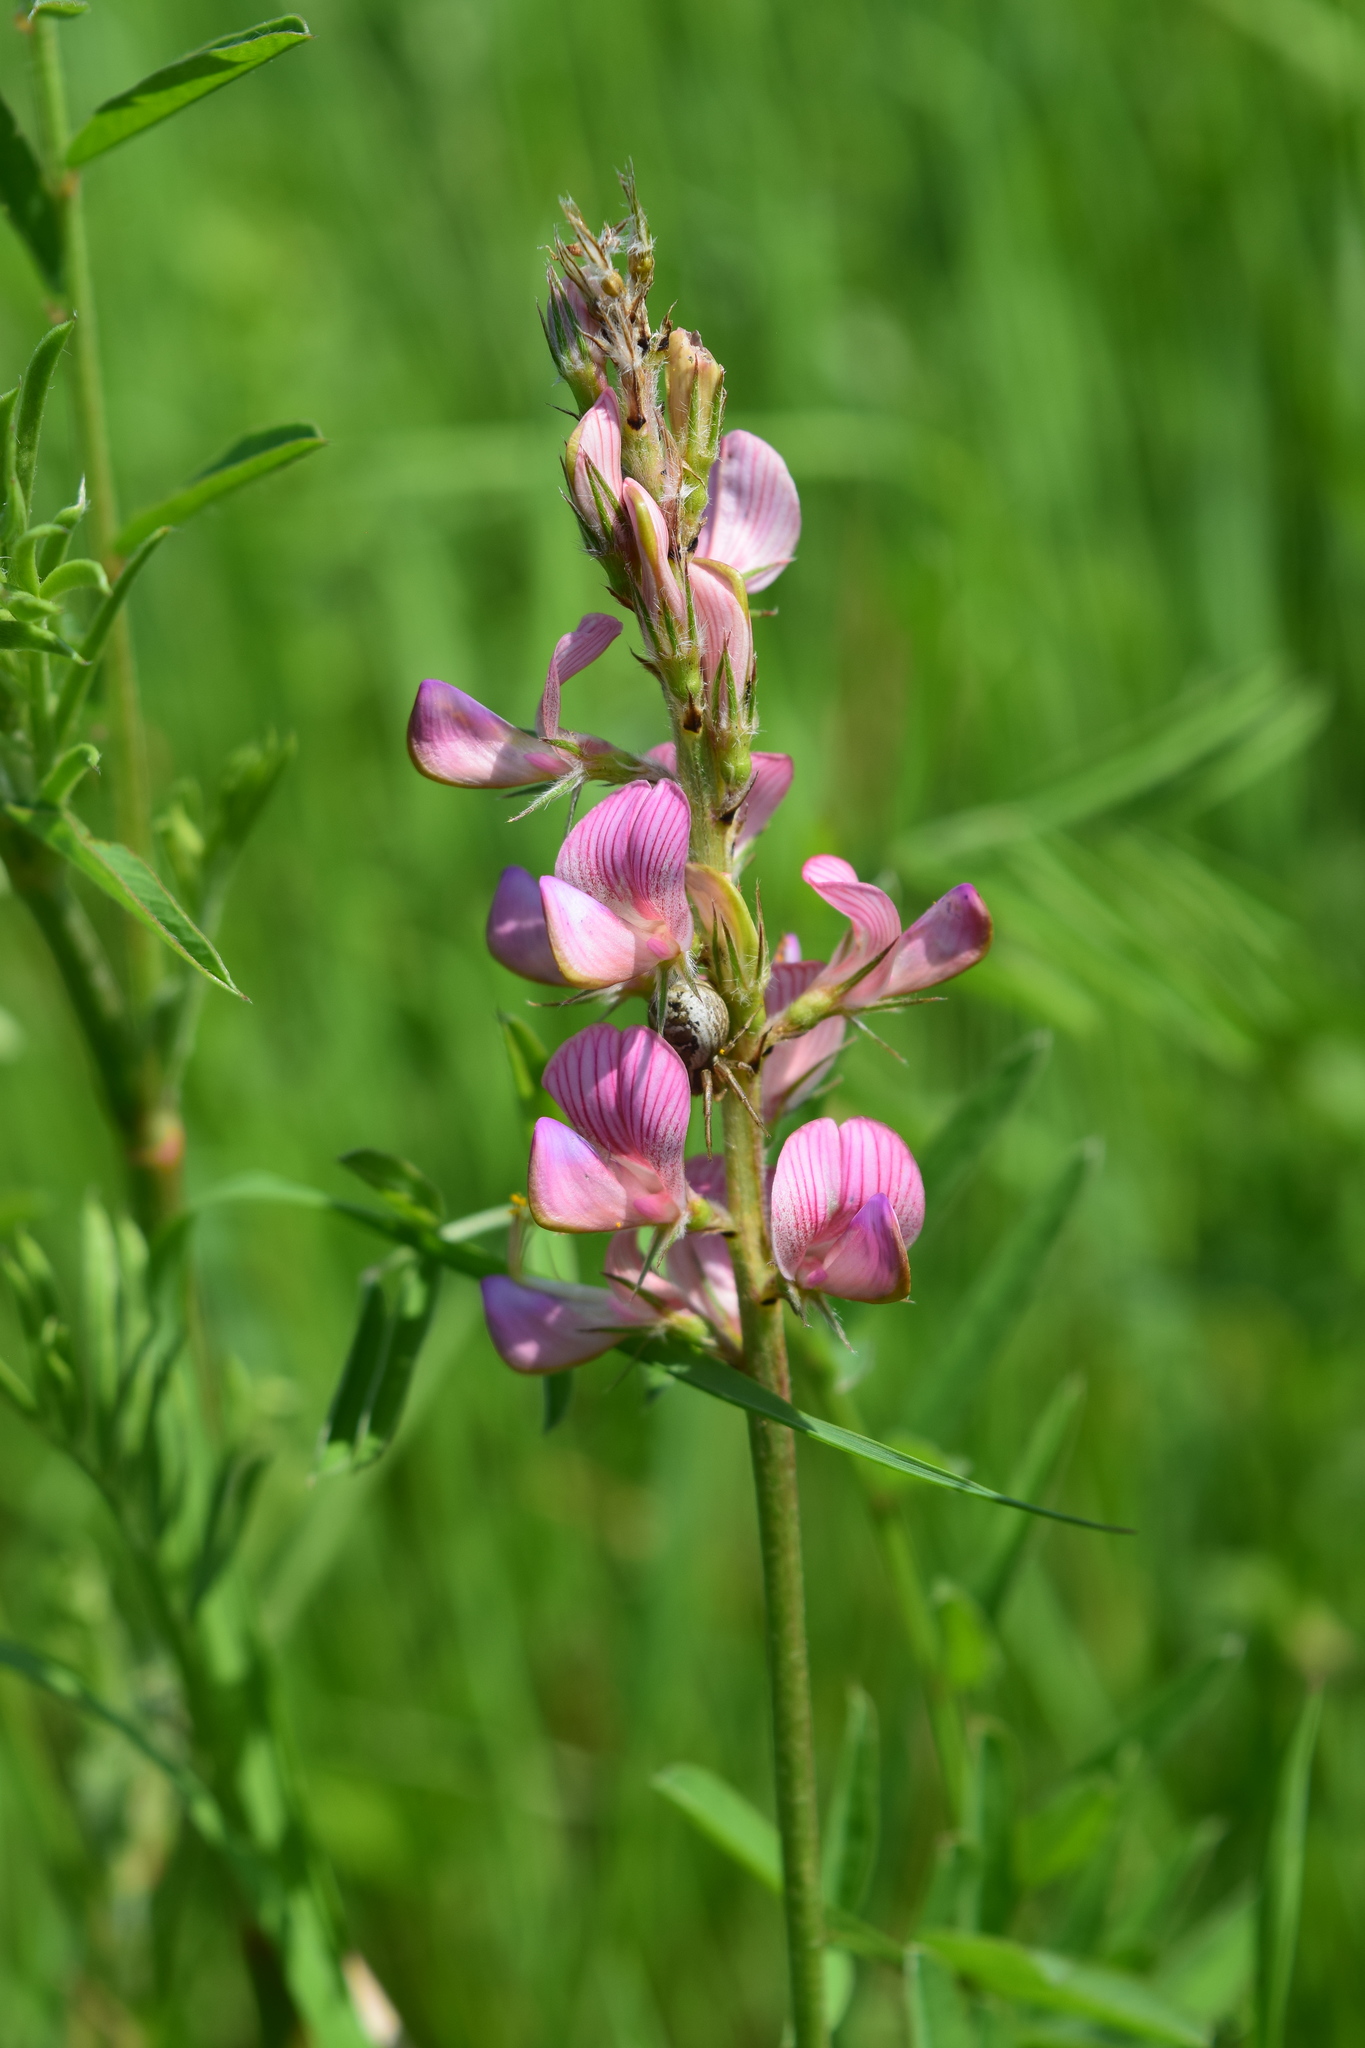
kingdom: Plantae
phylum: Tracheophyta
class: Magnoliopsida
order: Fabales
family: Fabaceae
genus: Onobrychis
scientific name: Onobrychis viciifolia
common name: Sainfoin
